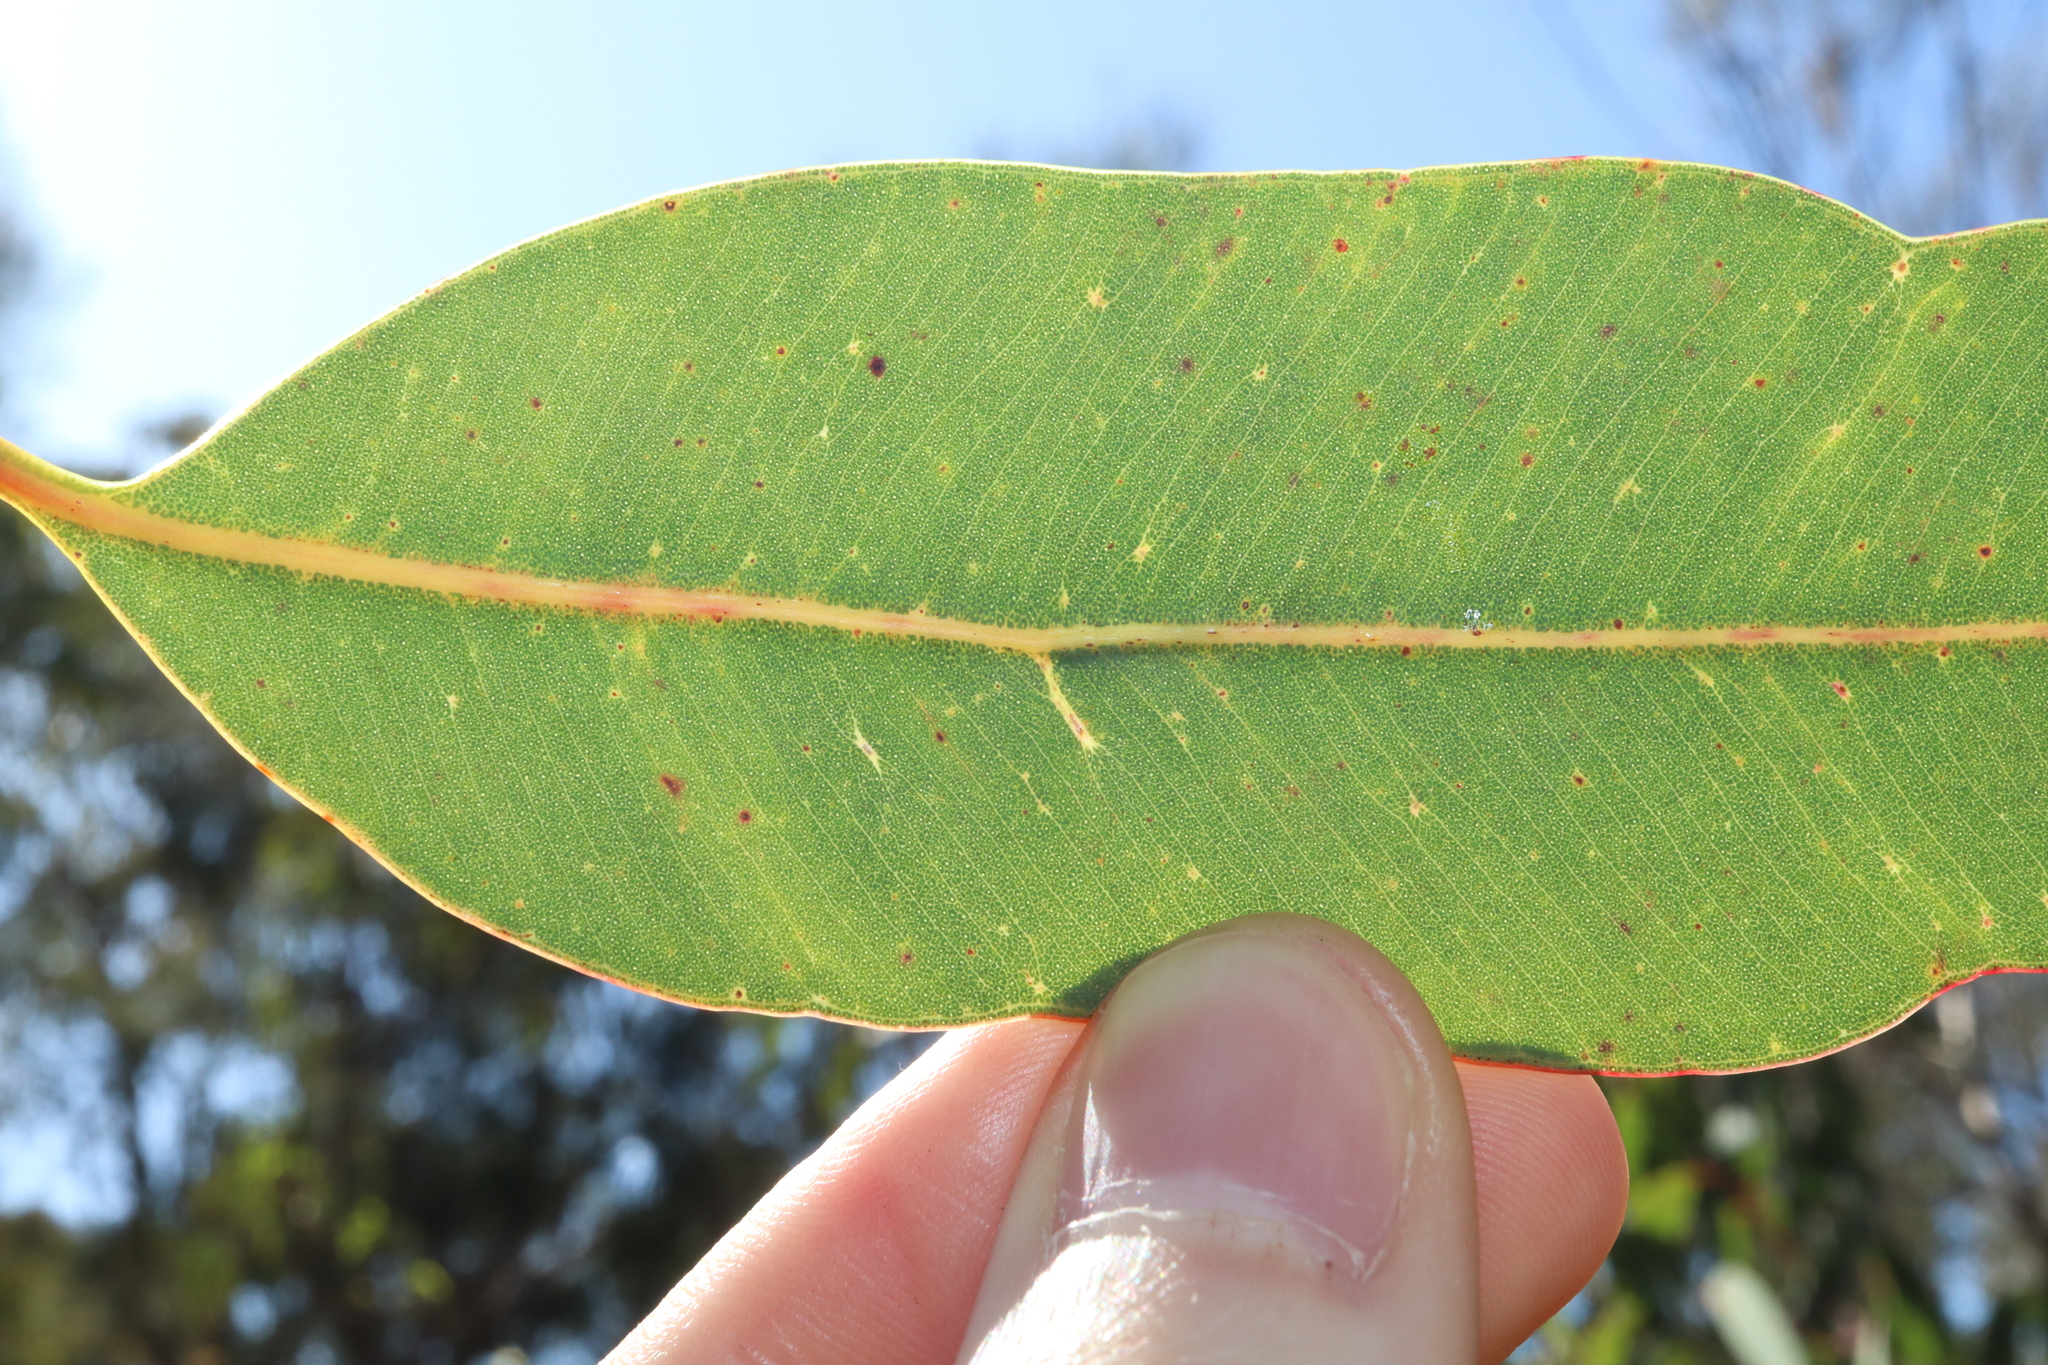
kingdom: Plantae
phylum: Tracheophyta
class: Magnoliopsida
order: Myrtales
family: Myrtaceae
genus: Corymbia
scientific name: Corymbia eximia
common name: Yellow bloodwood
